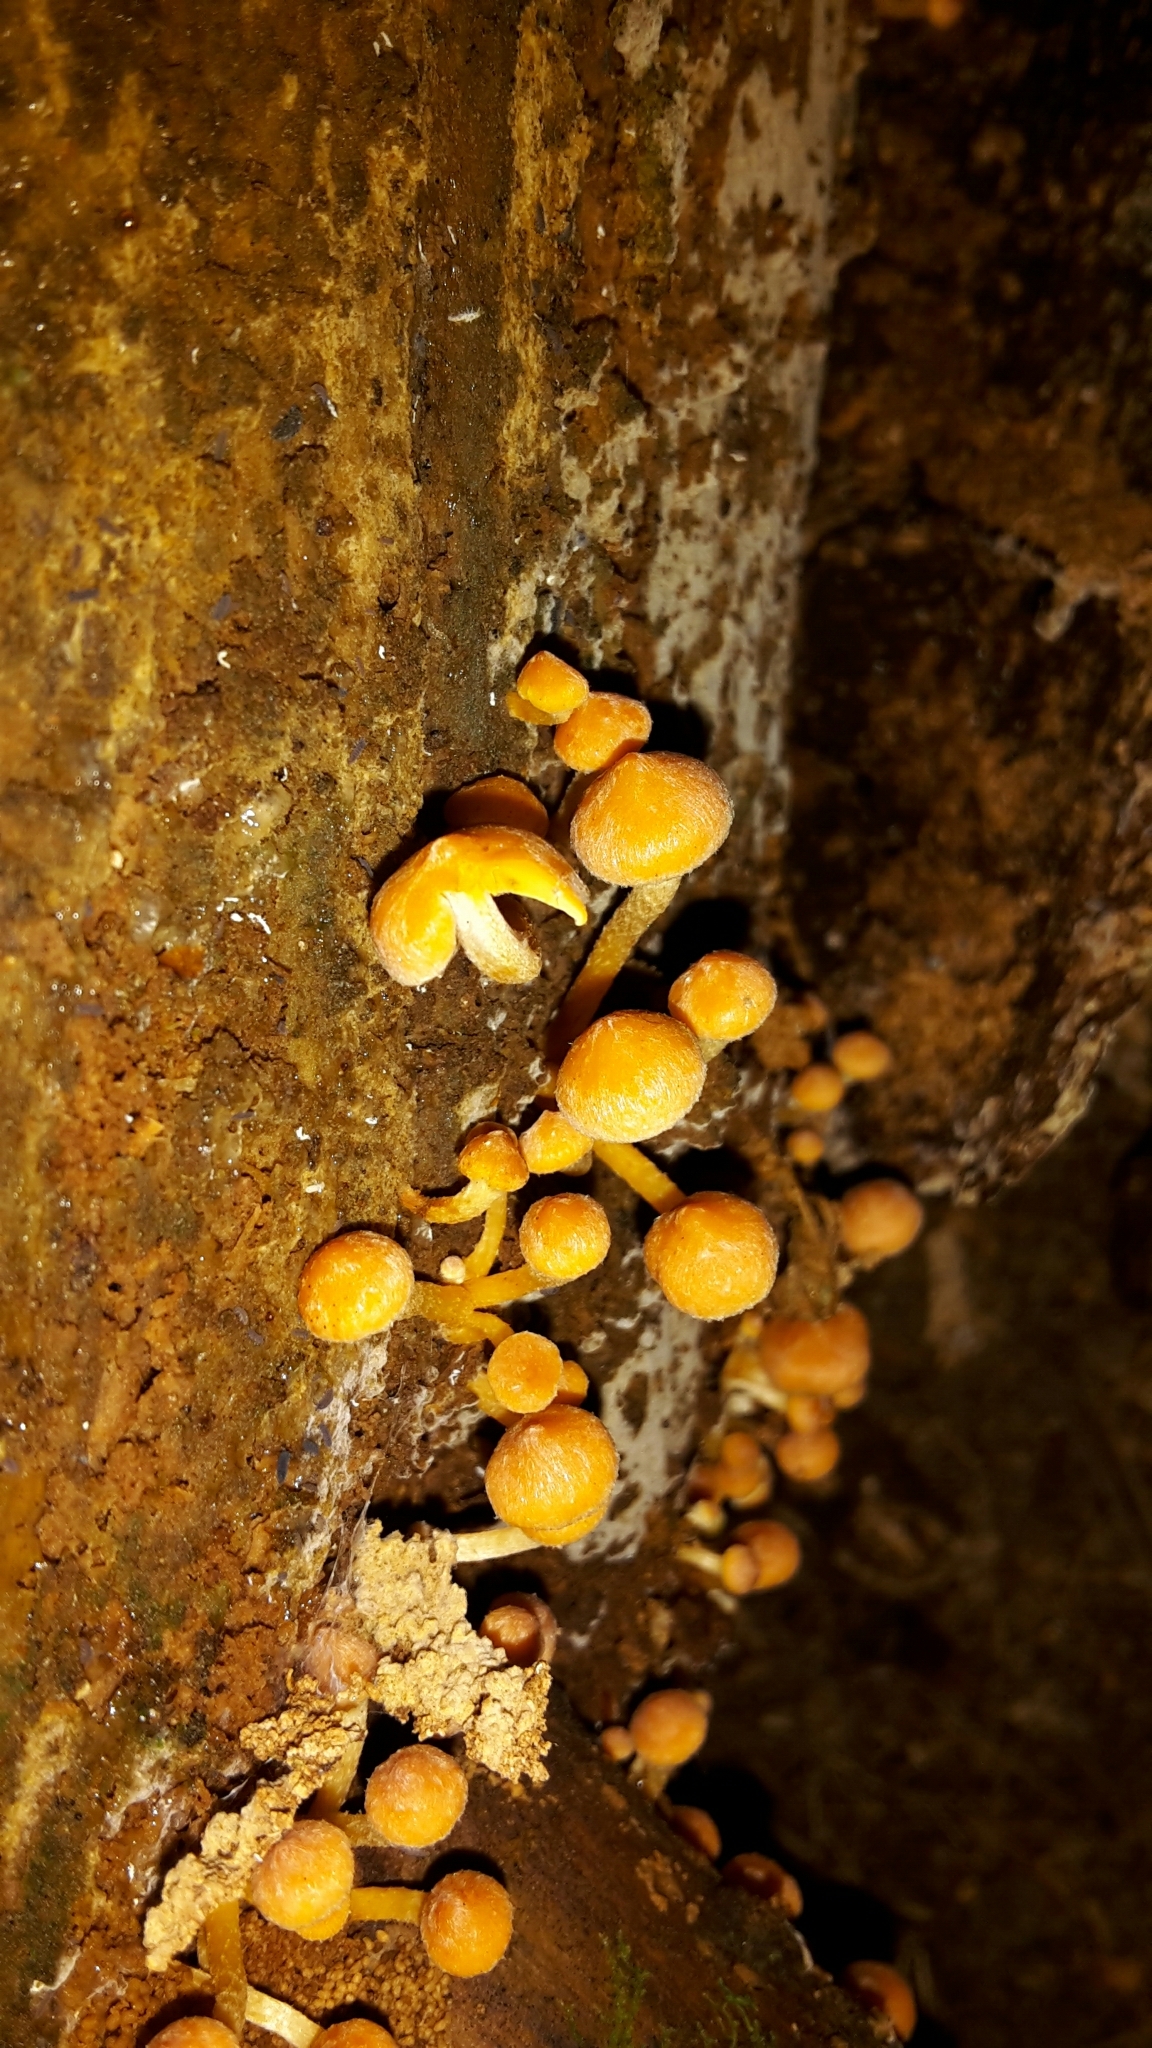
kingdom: Fungi
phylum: Basidiomycota
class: Agaricomycetes
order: Agaricales
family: Strophariaceae
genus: Hypholoma
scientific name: Hypholoma acutum
